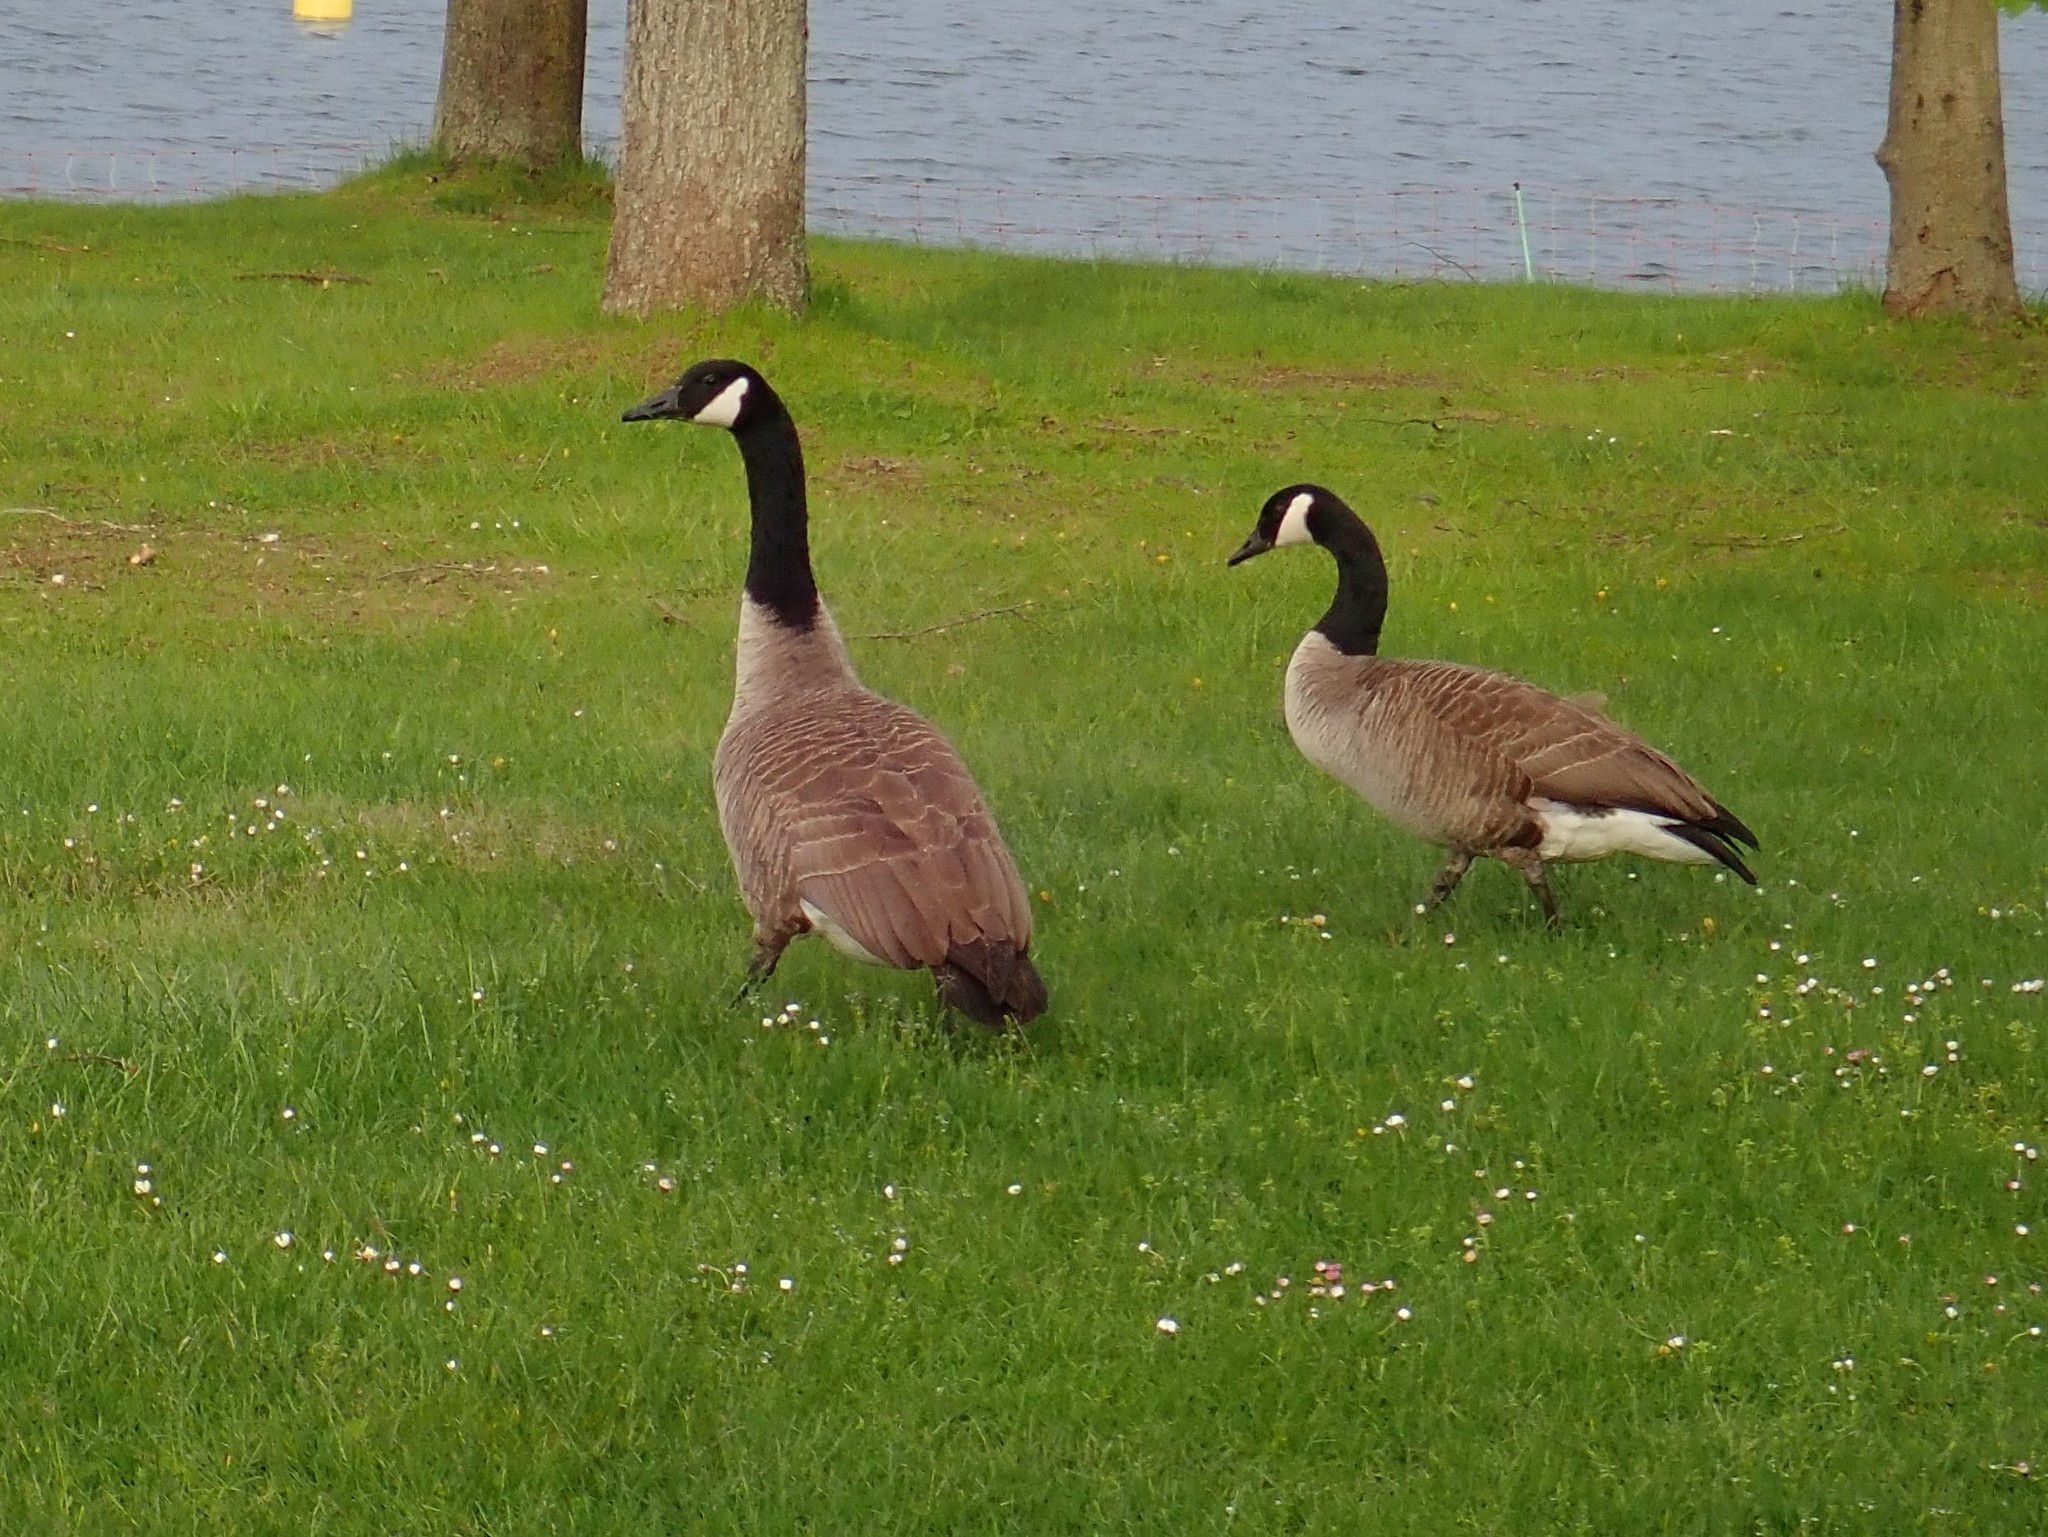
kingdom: Animalia
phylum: Chordata
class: Aves
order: Anseriformes
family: Anatidae
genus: Branta
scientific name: Branta canadensis
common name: Canada goose
